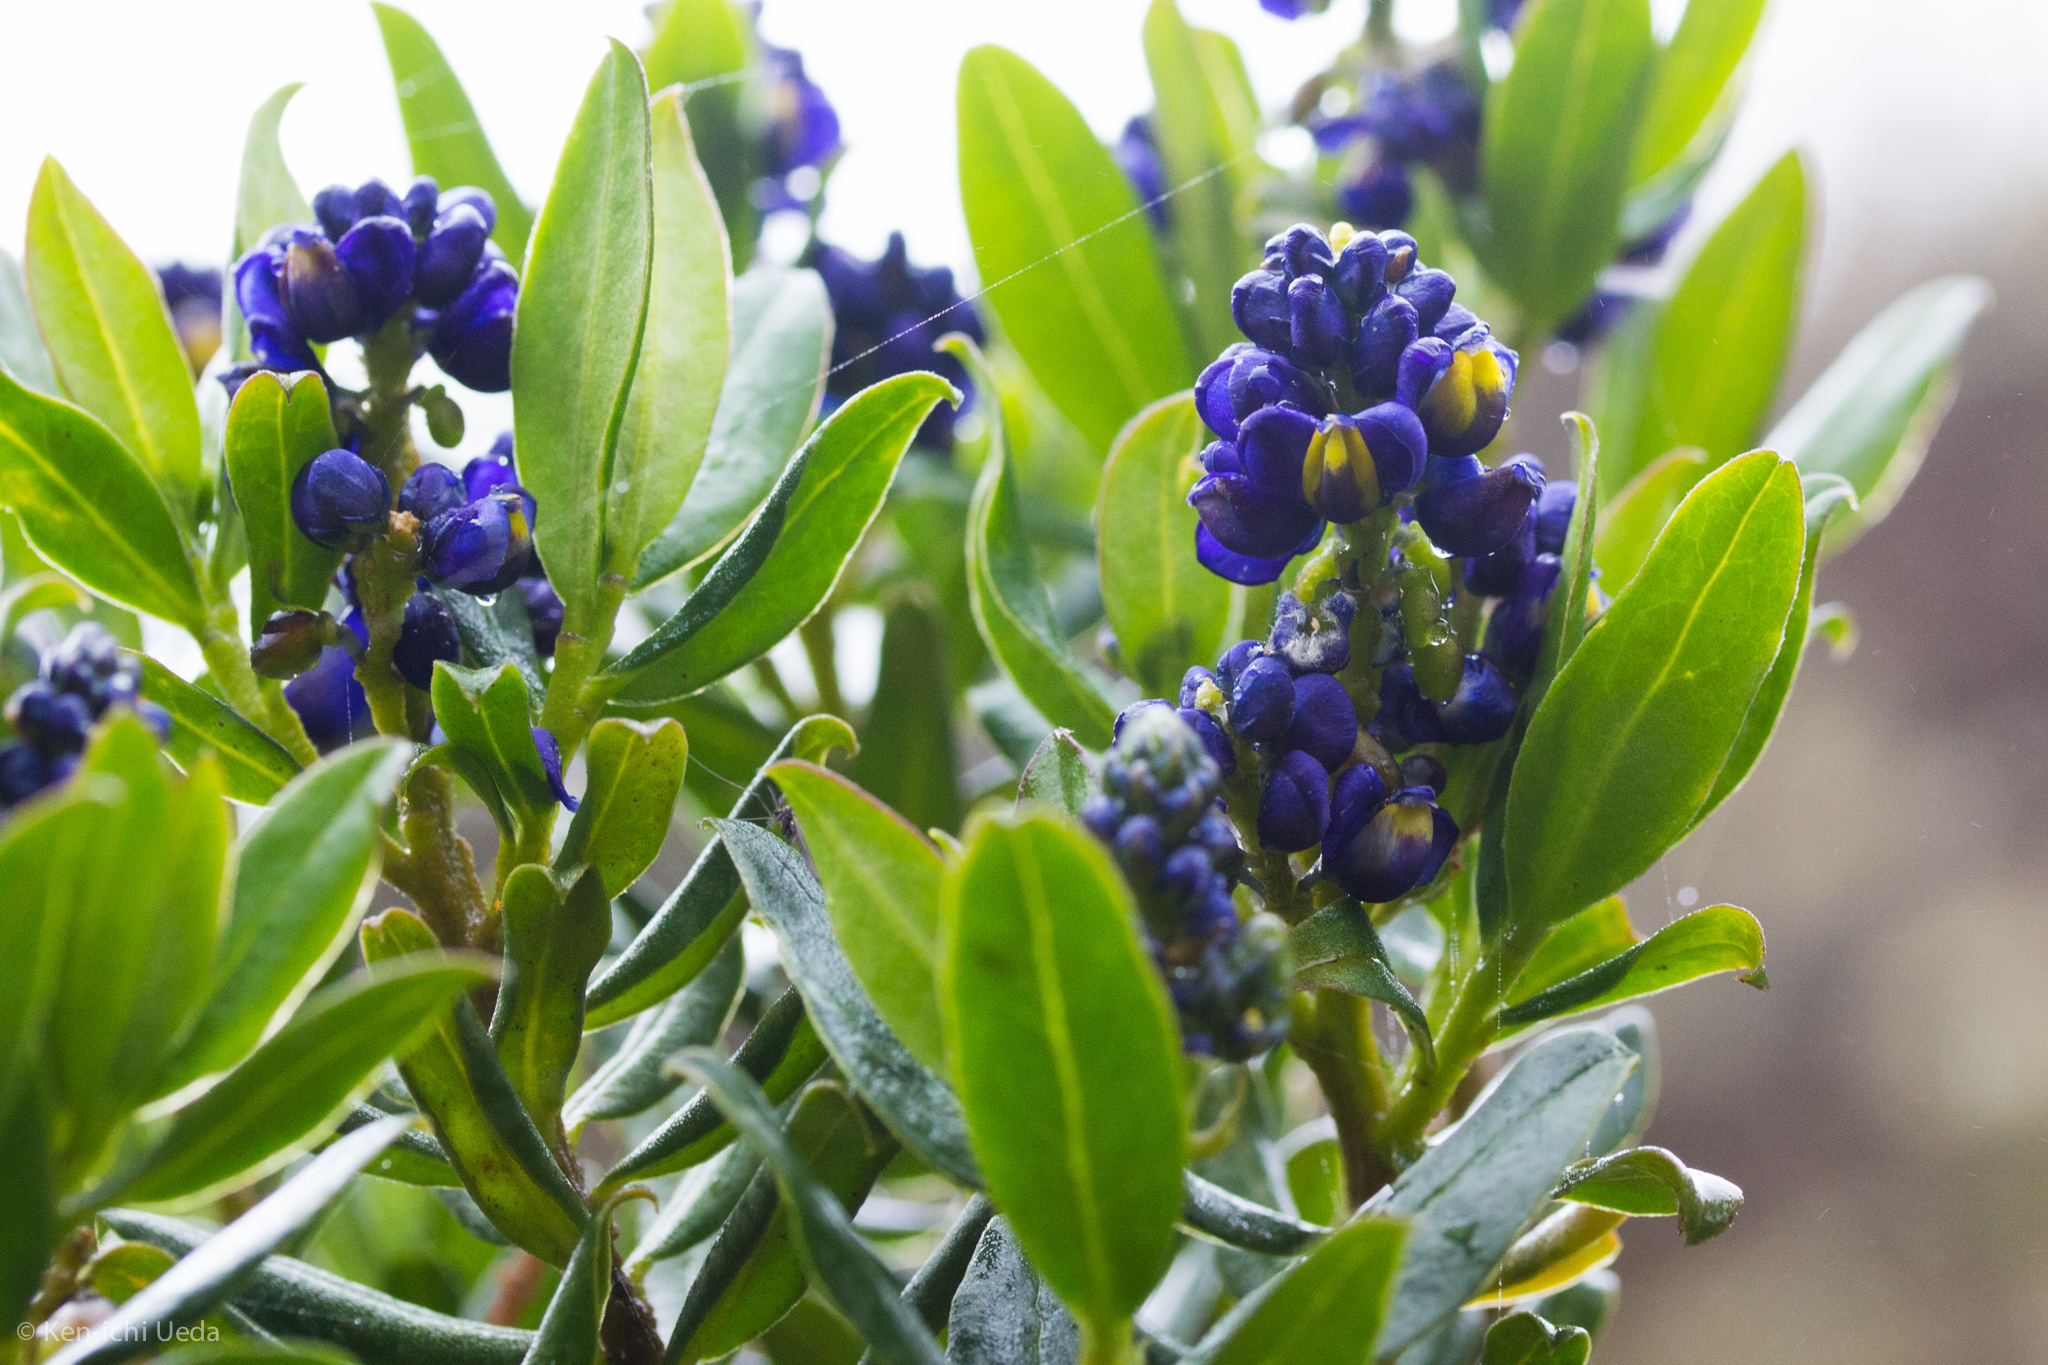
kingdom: Plantae
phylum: Tracheophyta
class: Magnoliopsida
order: Fabales
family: Polygalaceae
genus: Monnina
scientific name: Monnina aestuans
